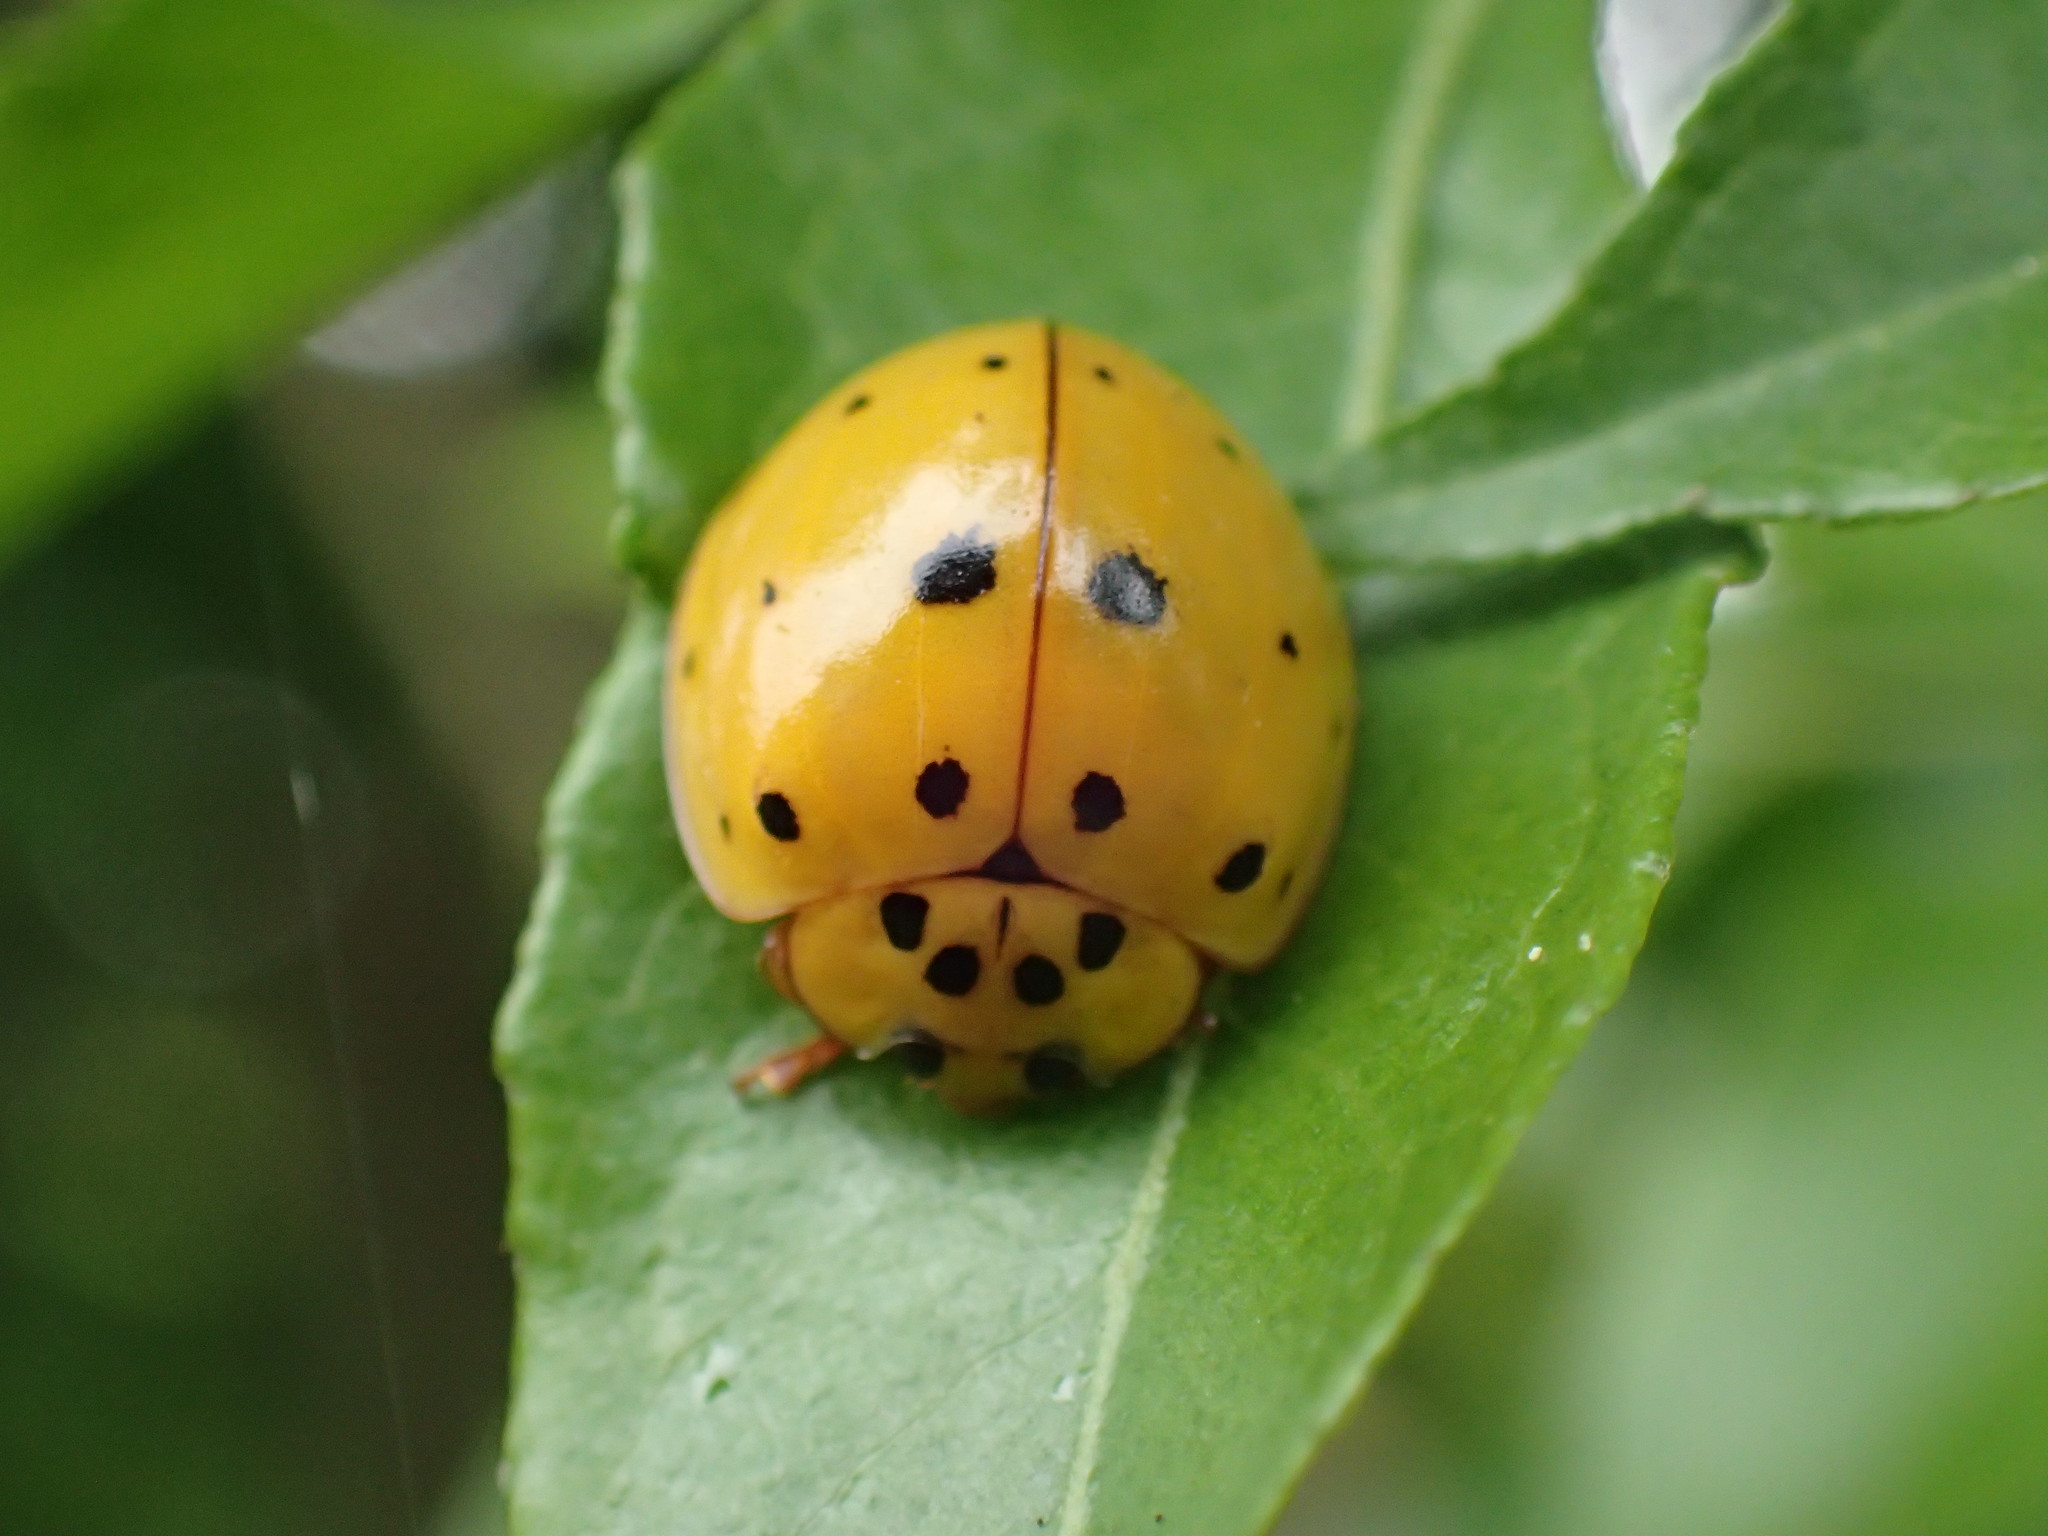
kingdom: Animalia
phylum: Arthropoda
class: Insecta
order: Coleoptera
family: Coccinellidae
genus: Harmonia
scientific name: Harmonia
